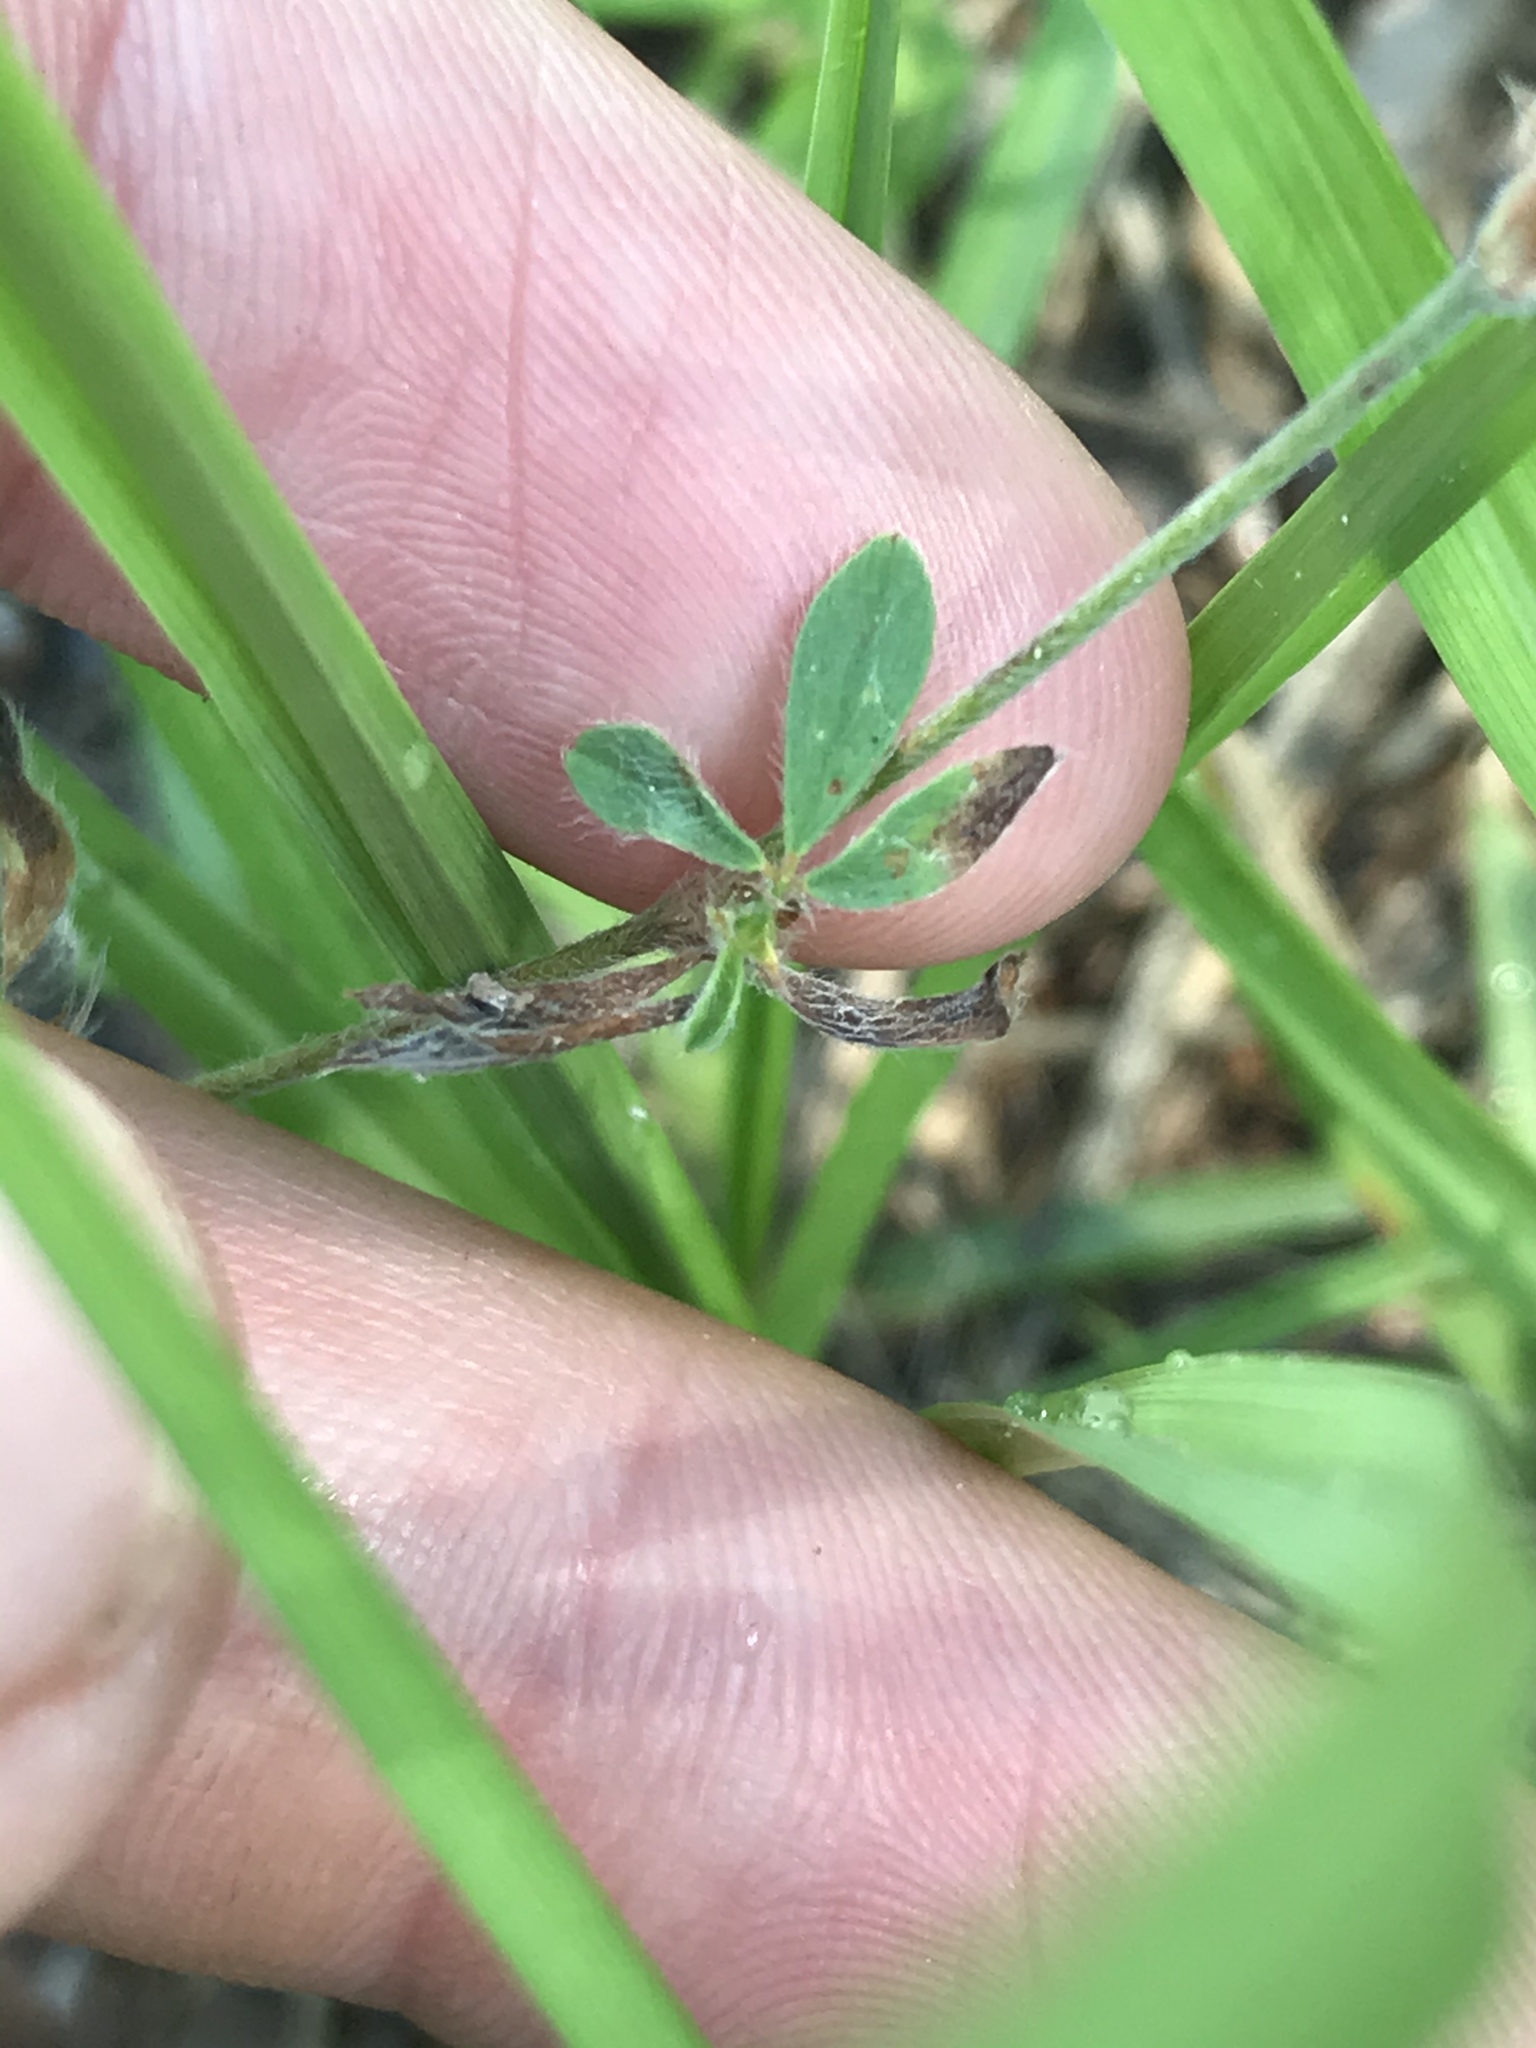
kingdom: Plantae
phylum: Tracheophyta
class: Magnoliopsida
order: Fabales
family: Fabaceae
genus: Trifolium
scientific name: Trifolium arvense
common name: Hare's-foot clover
